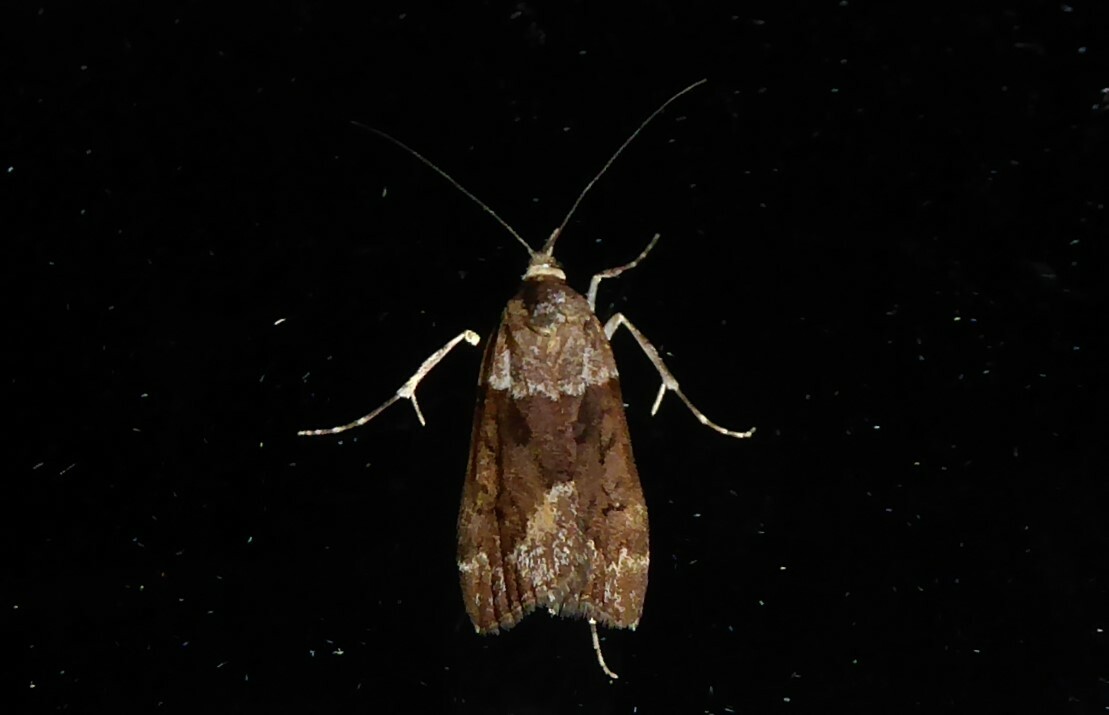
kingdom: Animalia
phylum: Arthropoda
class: Insecta
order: Lepidoptera
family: Crambidae
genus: Eudonia
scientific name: Eudonia submarginalis
